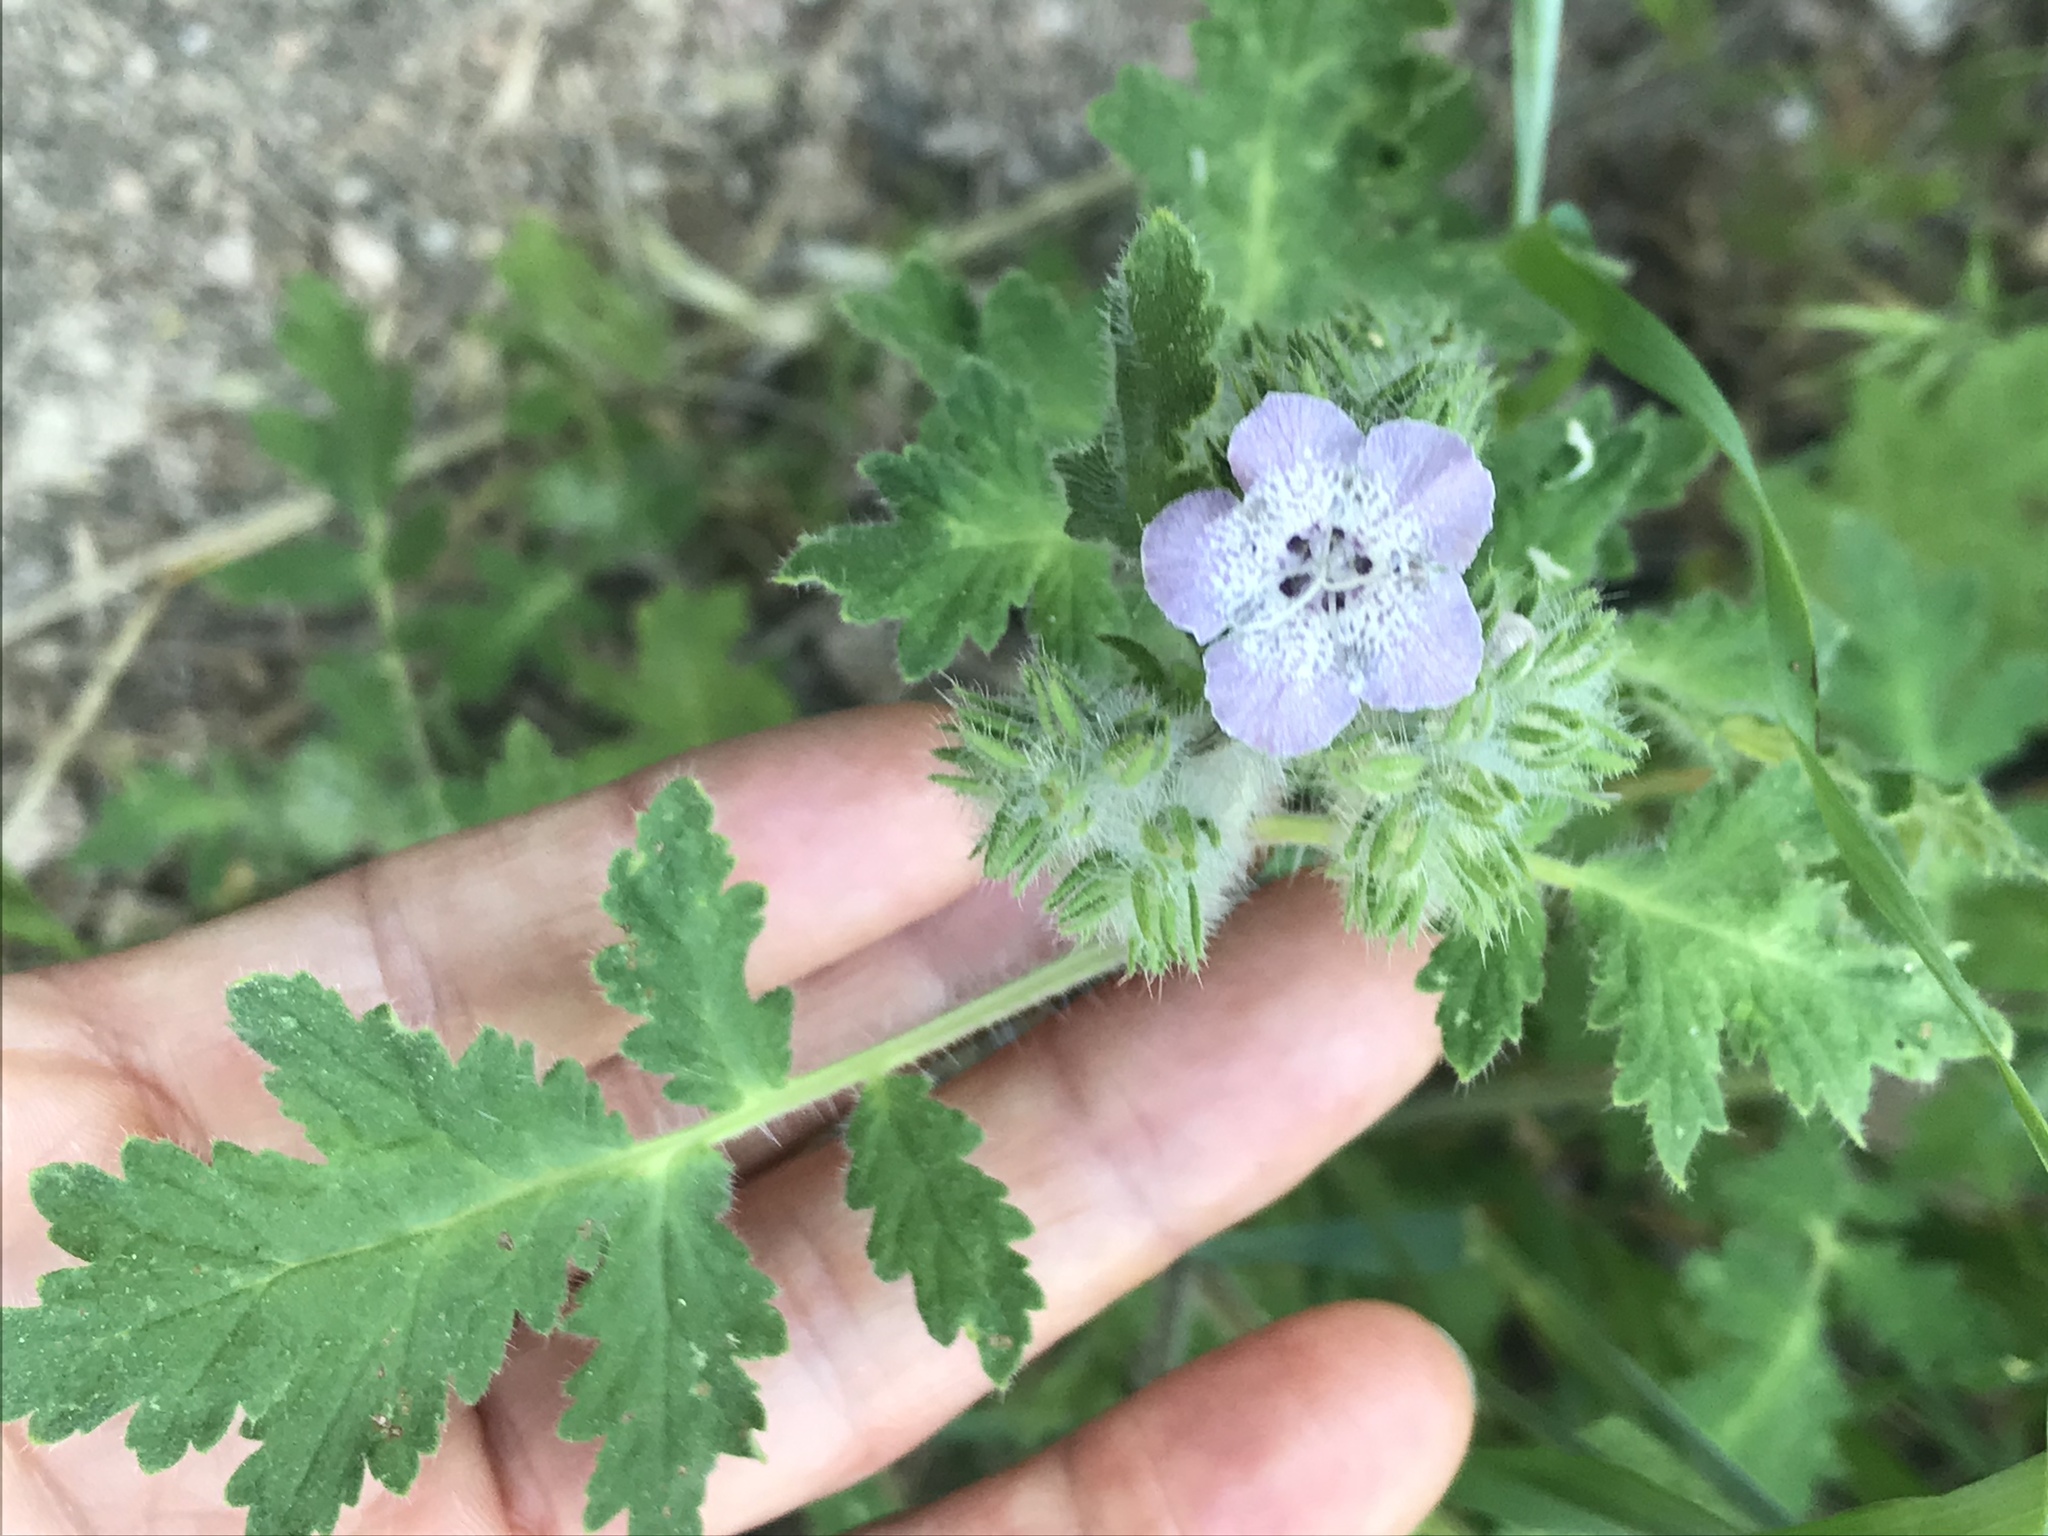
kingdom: Plantae
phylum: Tracheophyta
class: Magnoliopsida
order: Boraginales
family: Hydrophyllaceae
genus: Phacelia
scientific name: Phacelia cicutaria
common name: Caterpillar phacelia
